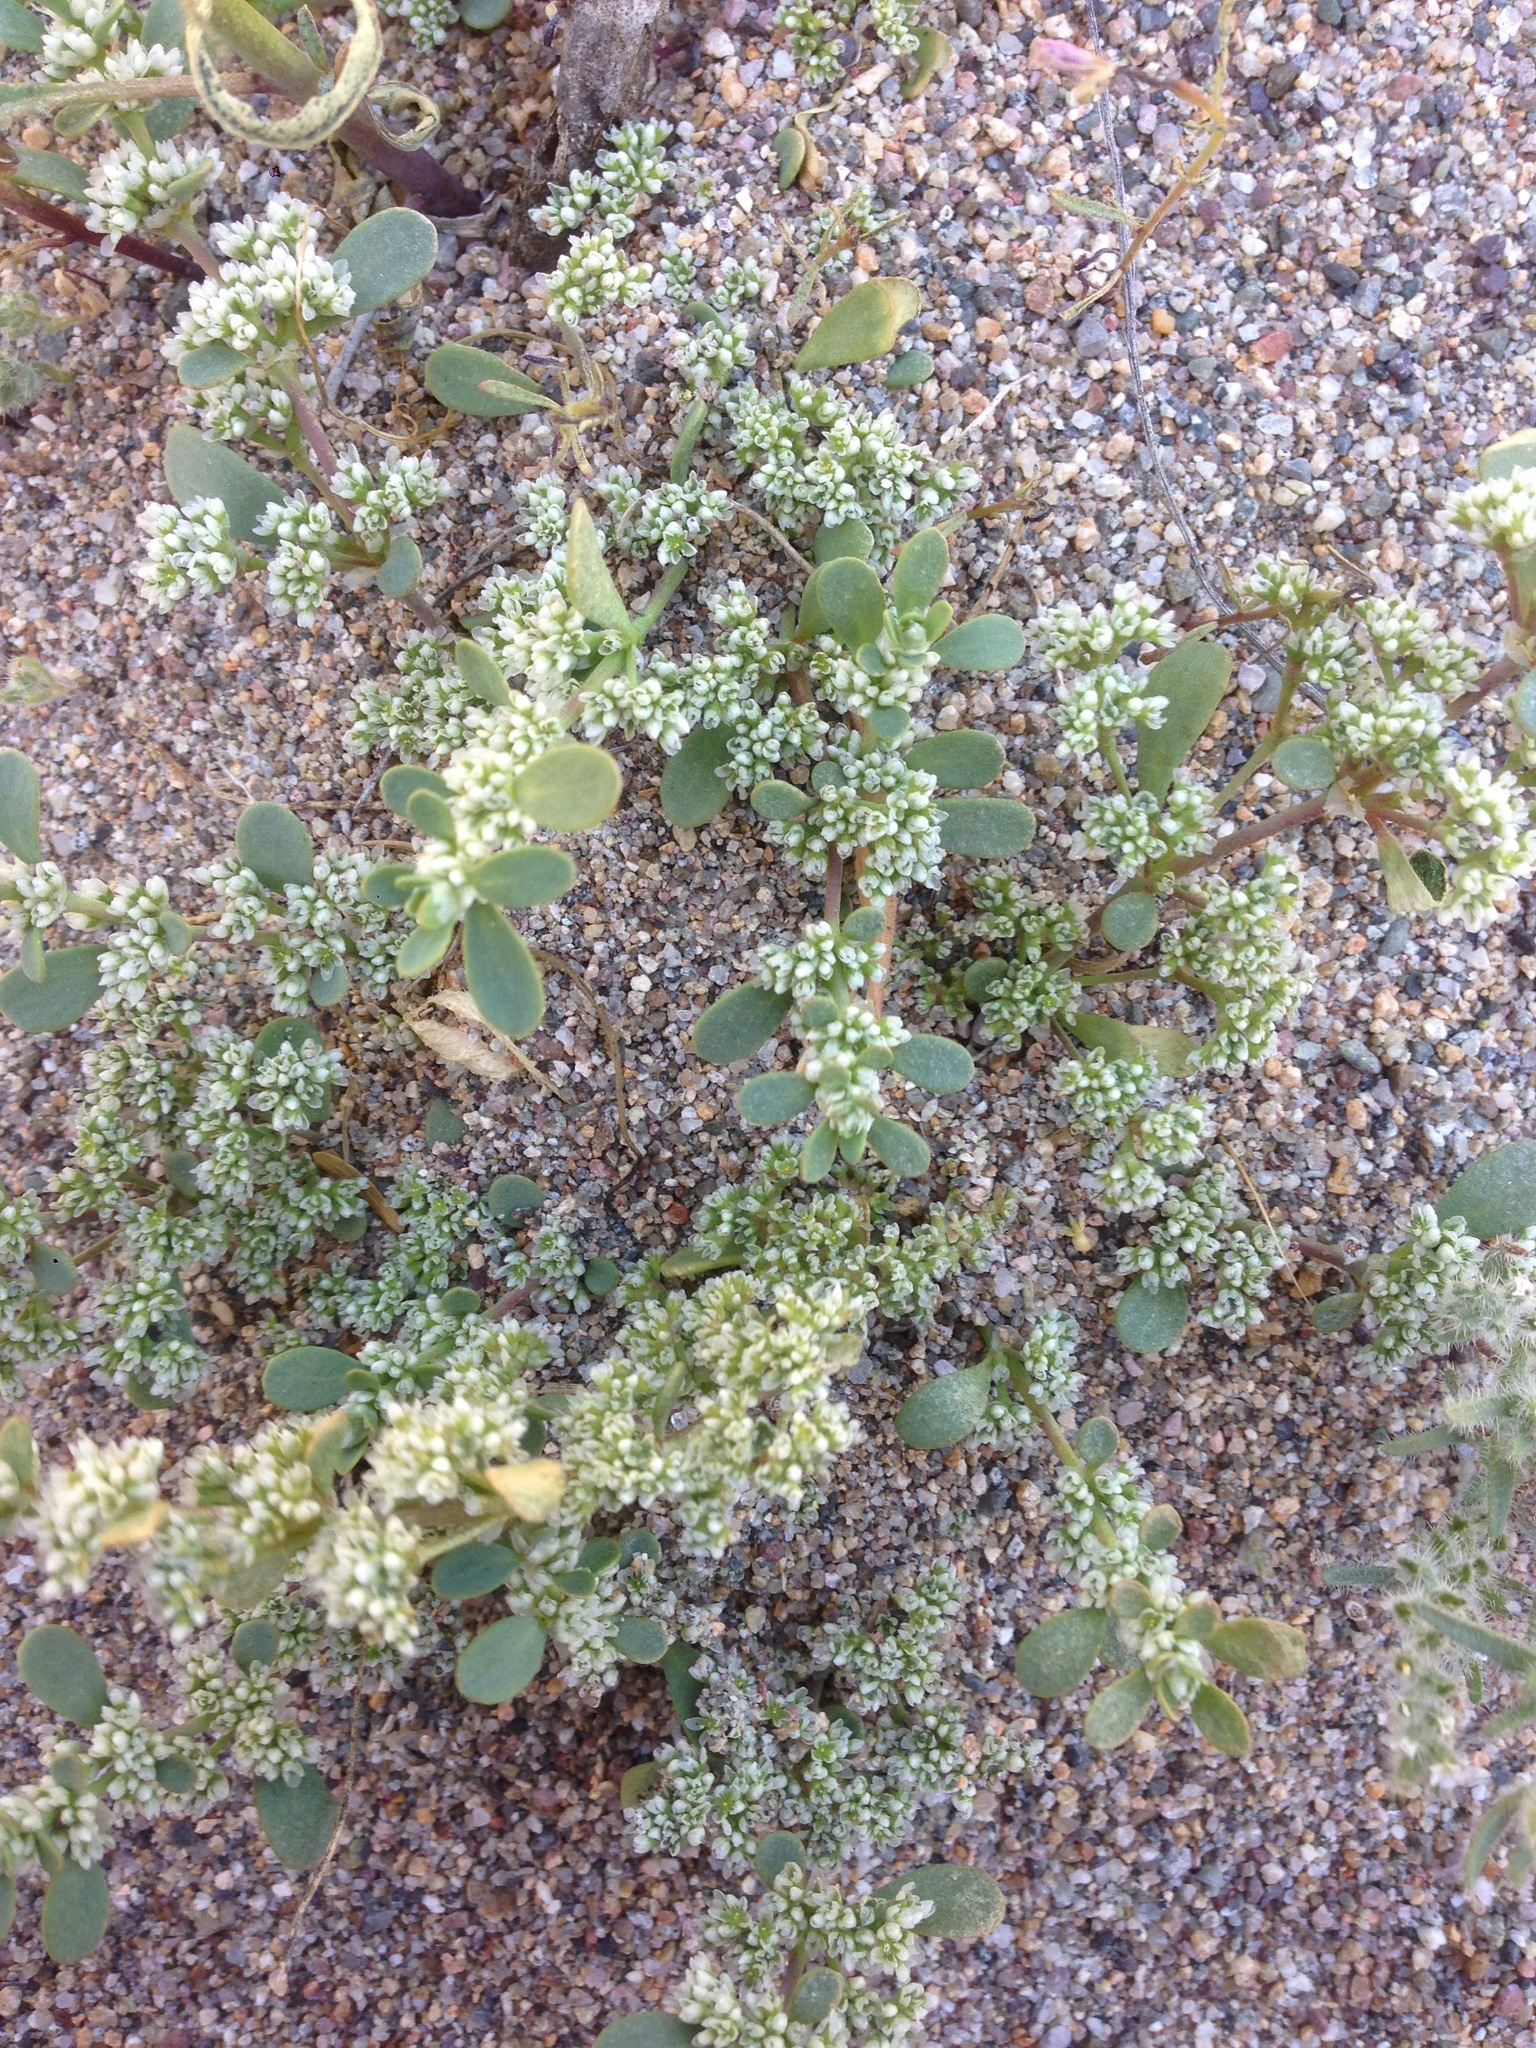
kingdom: Plantae
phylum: Tracheophyta
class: Magnoliopsida
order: Caryophyllales
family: Caryophyllaceae
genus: Achyronychia
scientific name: Achyronychia cooperi
